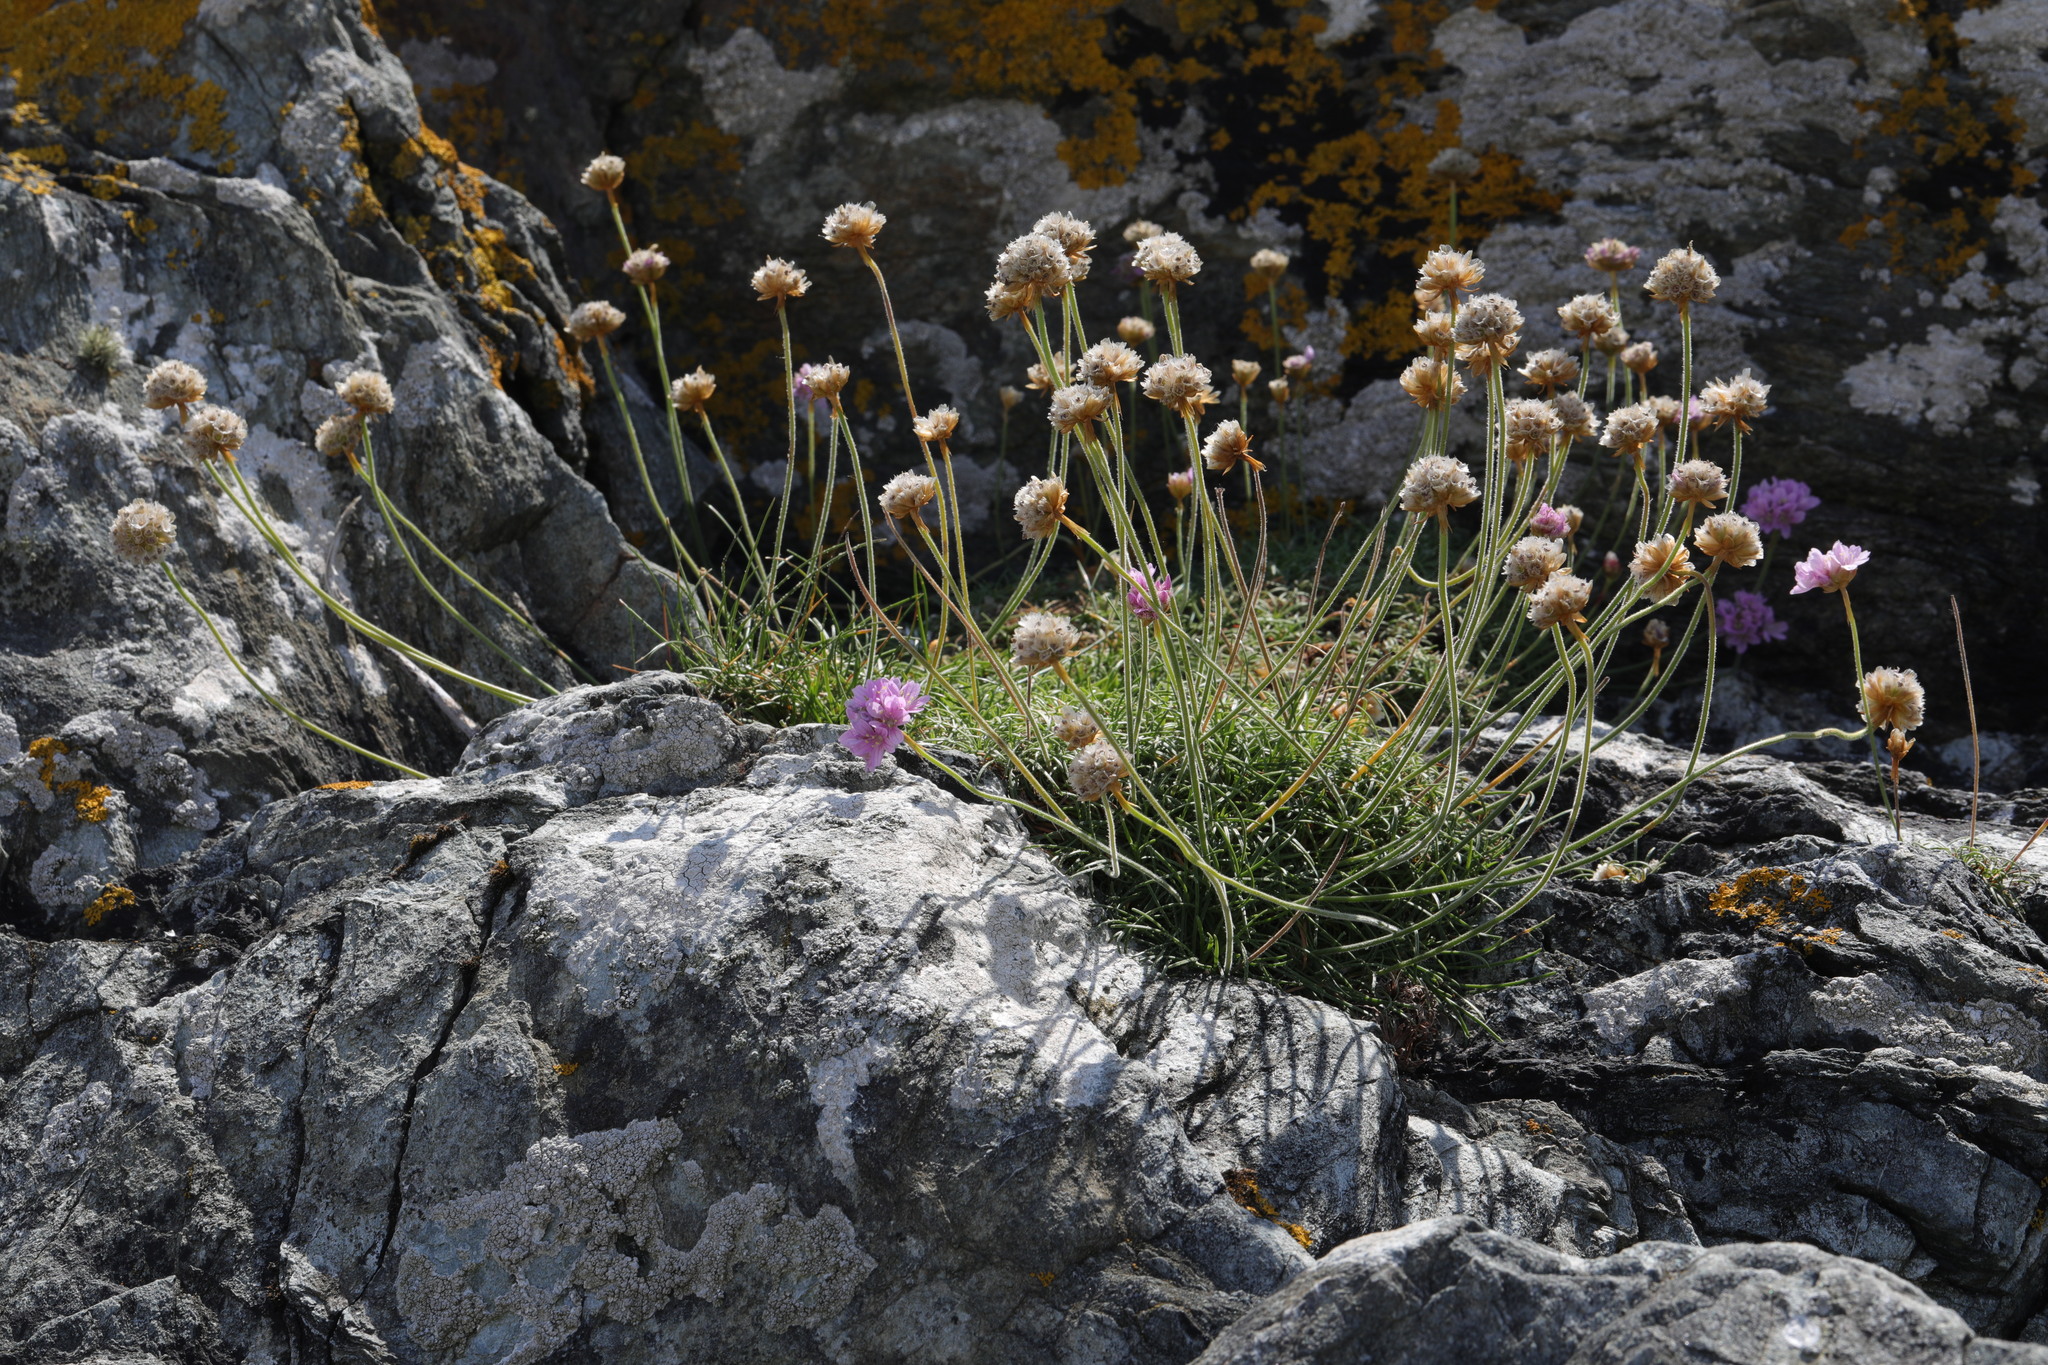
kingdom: Plantae
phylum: Tracheophyta
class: Magnoliopsida
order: Caryophyllales
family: Plumbaginaceae
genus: Armeria
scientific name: Armeria maritima
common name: Thrift
